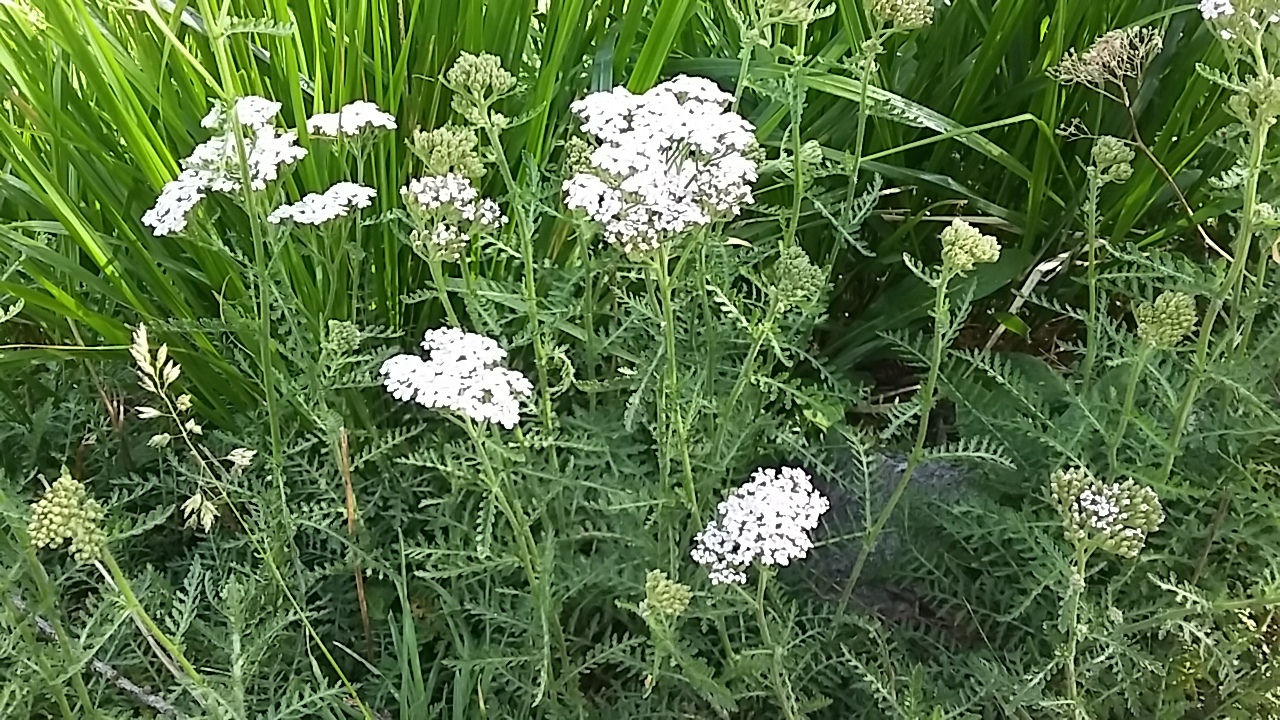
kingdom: Plantae
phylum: Tracheophyta
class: Magnoliopsida
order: Asterales
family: Asteraceae
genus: Achillea
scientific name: Achillea millefolium
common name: Yarrow
